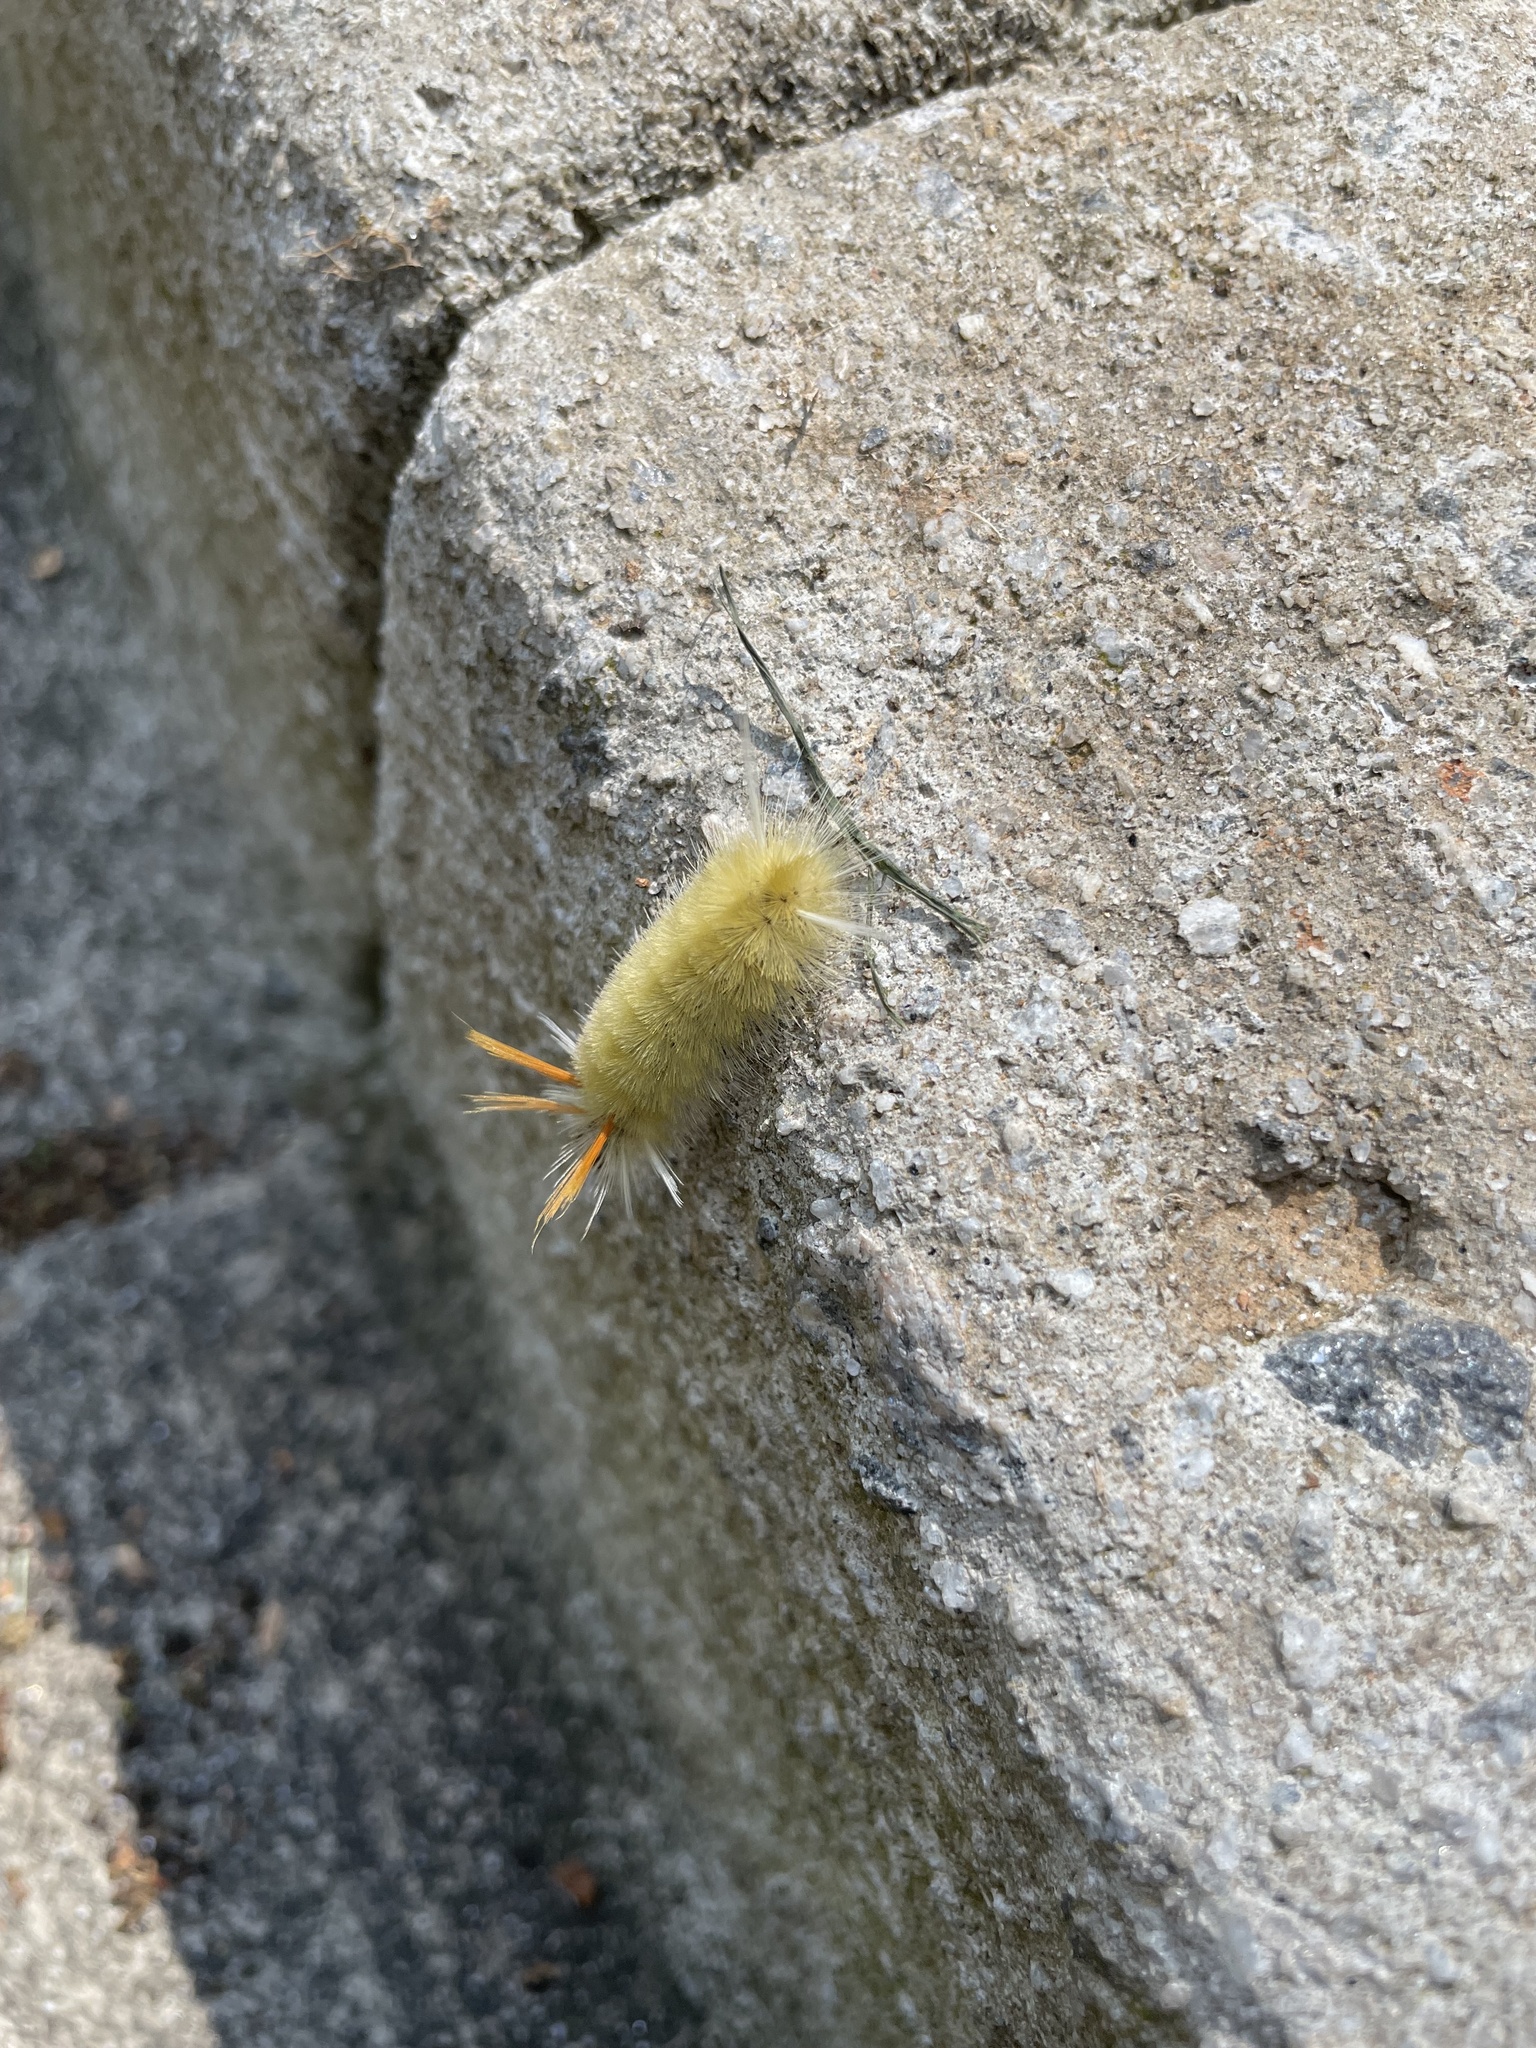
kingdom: Animalia
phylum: Arthropoda
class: Insecta
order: Lepidoptera
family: Erebidae
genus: Halysidota
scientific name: Halysidota harrisii
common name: Sycamore tussock moth
